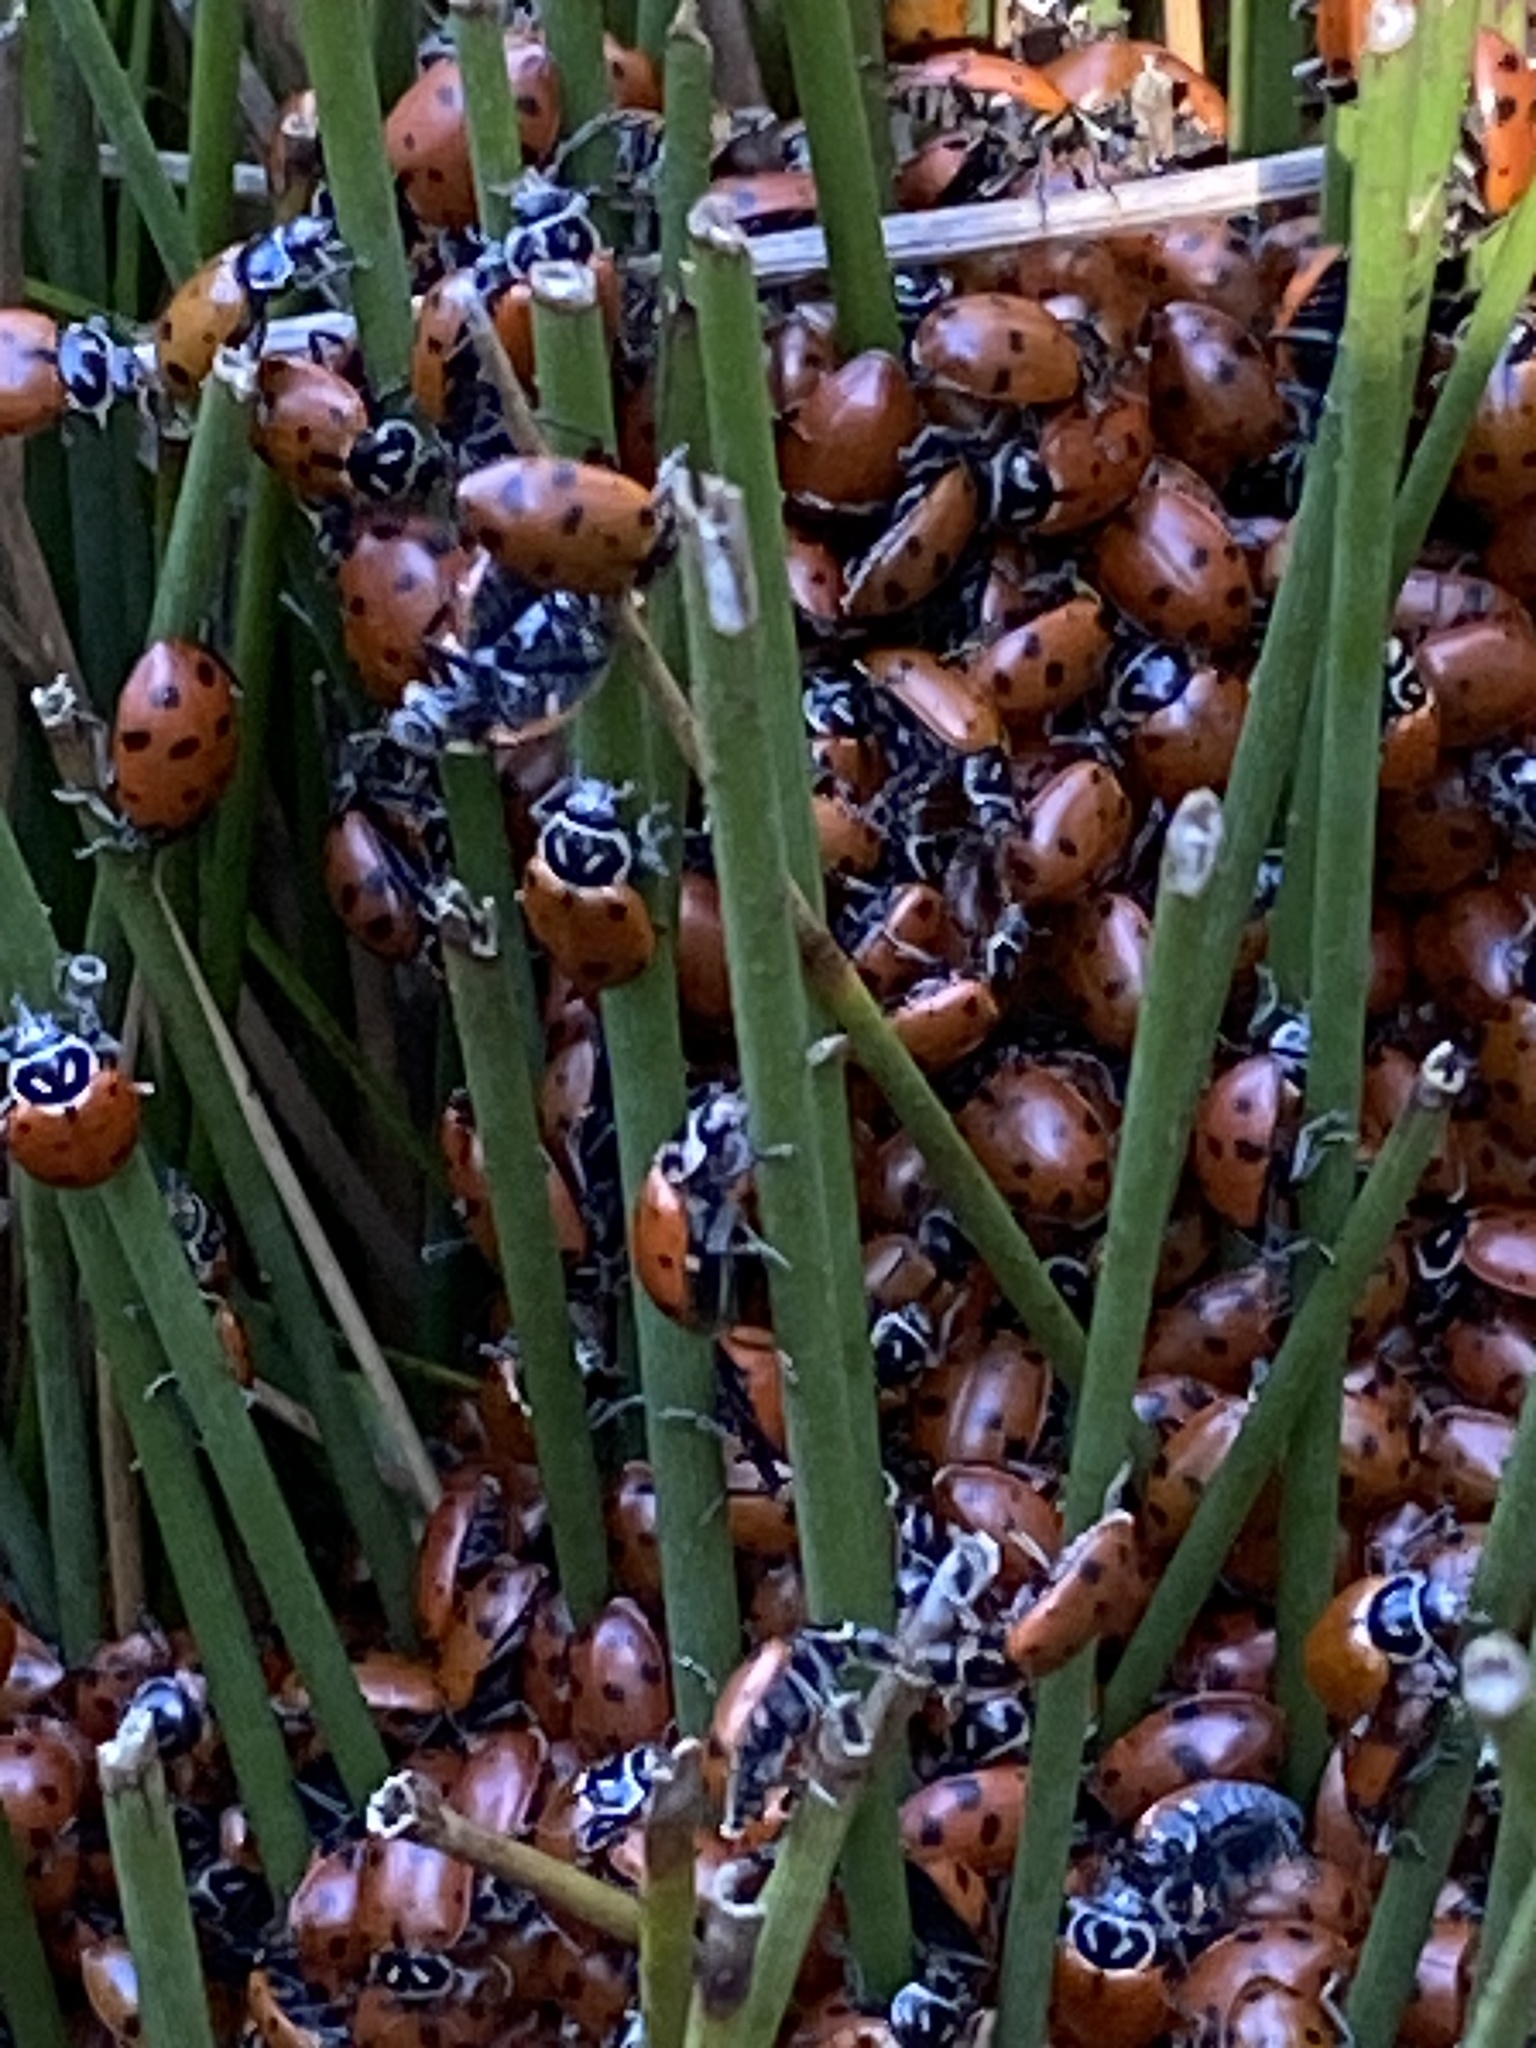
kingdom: Animalia
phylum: Arthropoda
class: Insecta
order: Coleoptera
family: Coccinellidae
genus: Hippodamia
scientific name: Hippodamia convergens
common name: Convergent lady beetle
